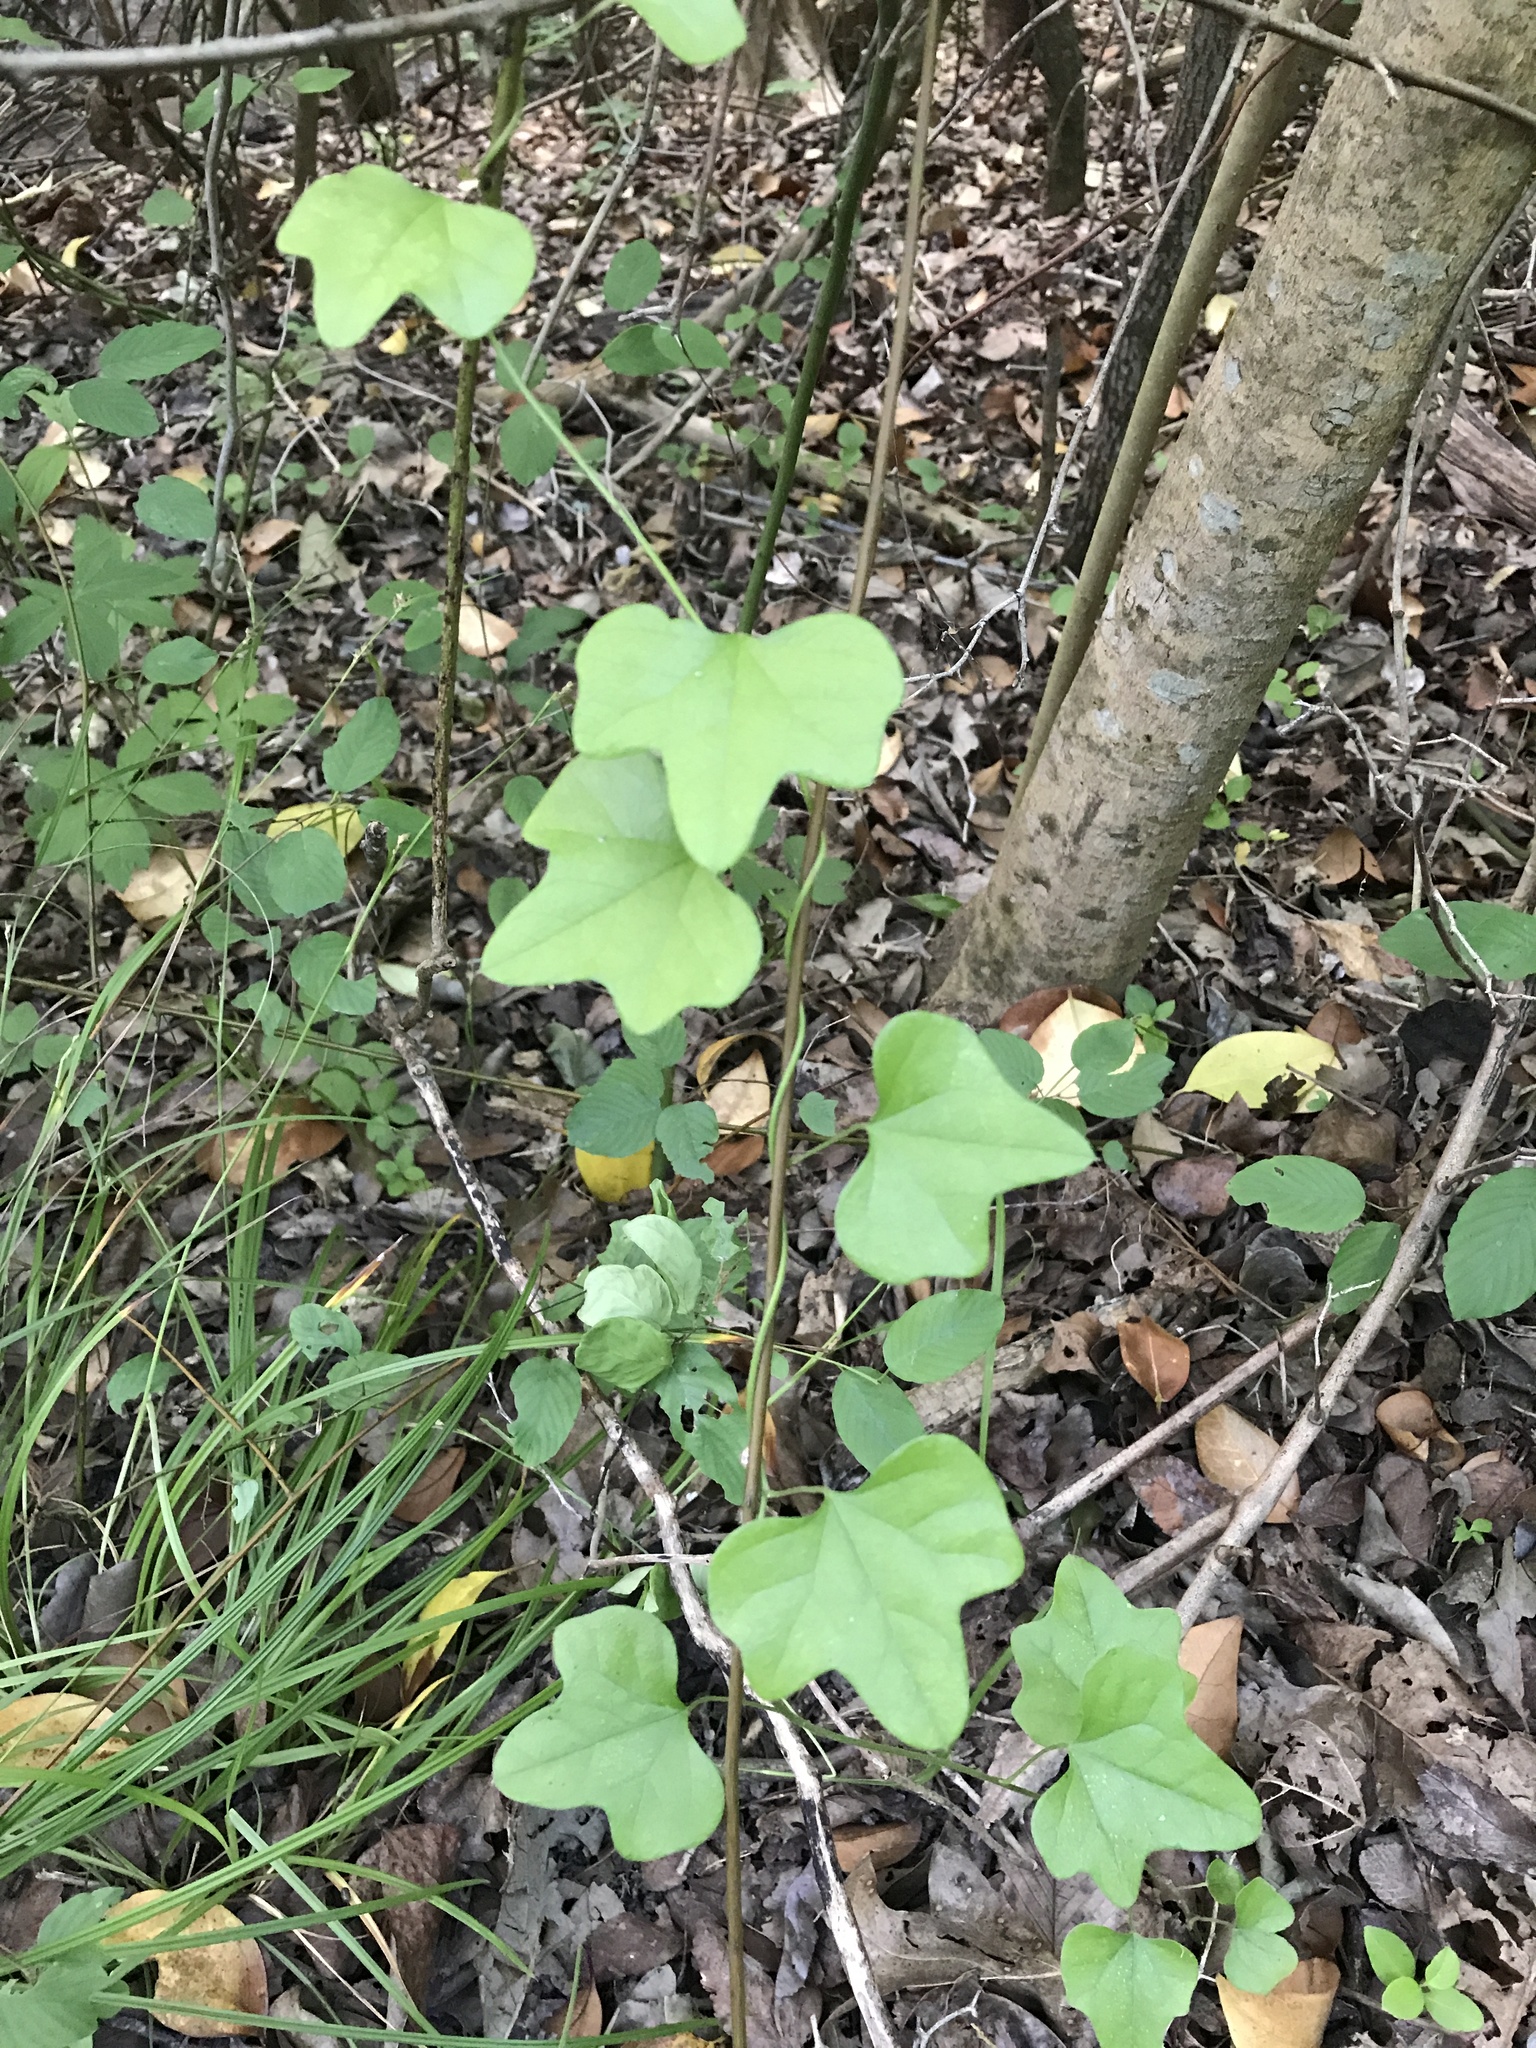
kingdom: Plantae
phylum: Tracheophyta
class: Magnoliopsida
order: Ranunculales
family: Menispermaceae
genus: Cocculus
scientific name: Cocculus carolinus
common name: Carolina moonseed
